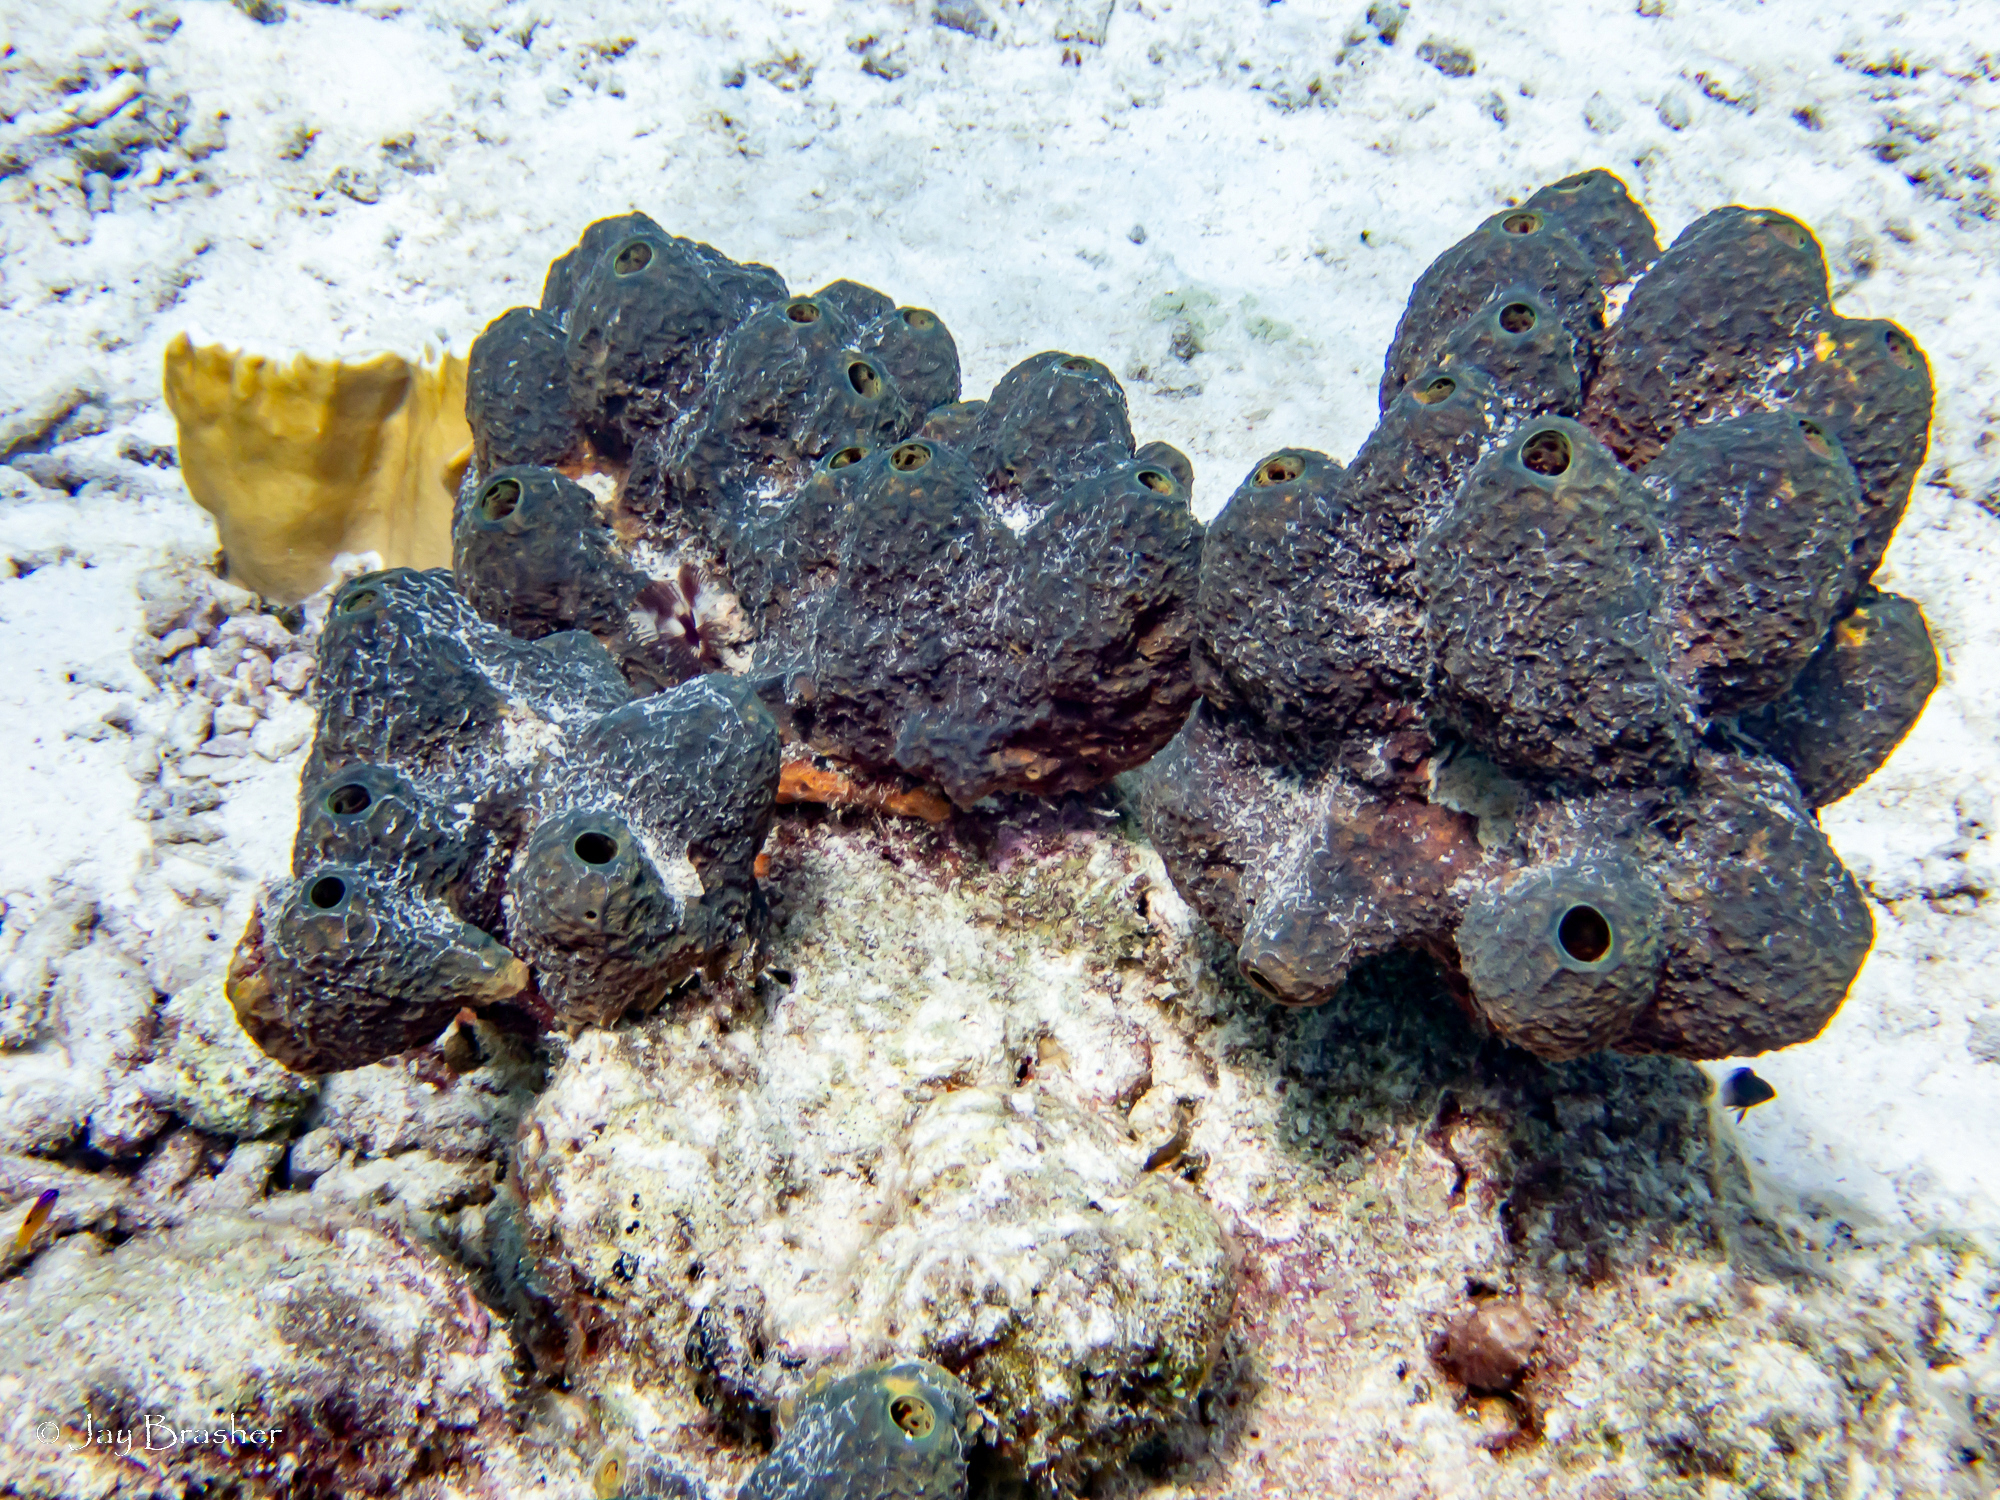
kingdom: Animalia
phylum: Porifera
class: Demospongiae
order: Verongiida
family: Aplysinidae
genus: Verongula
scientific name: Verongula reiswigi
